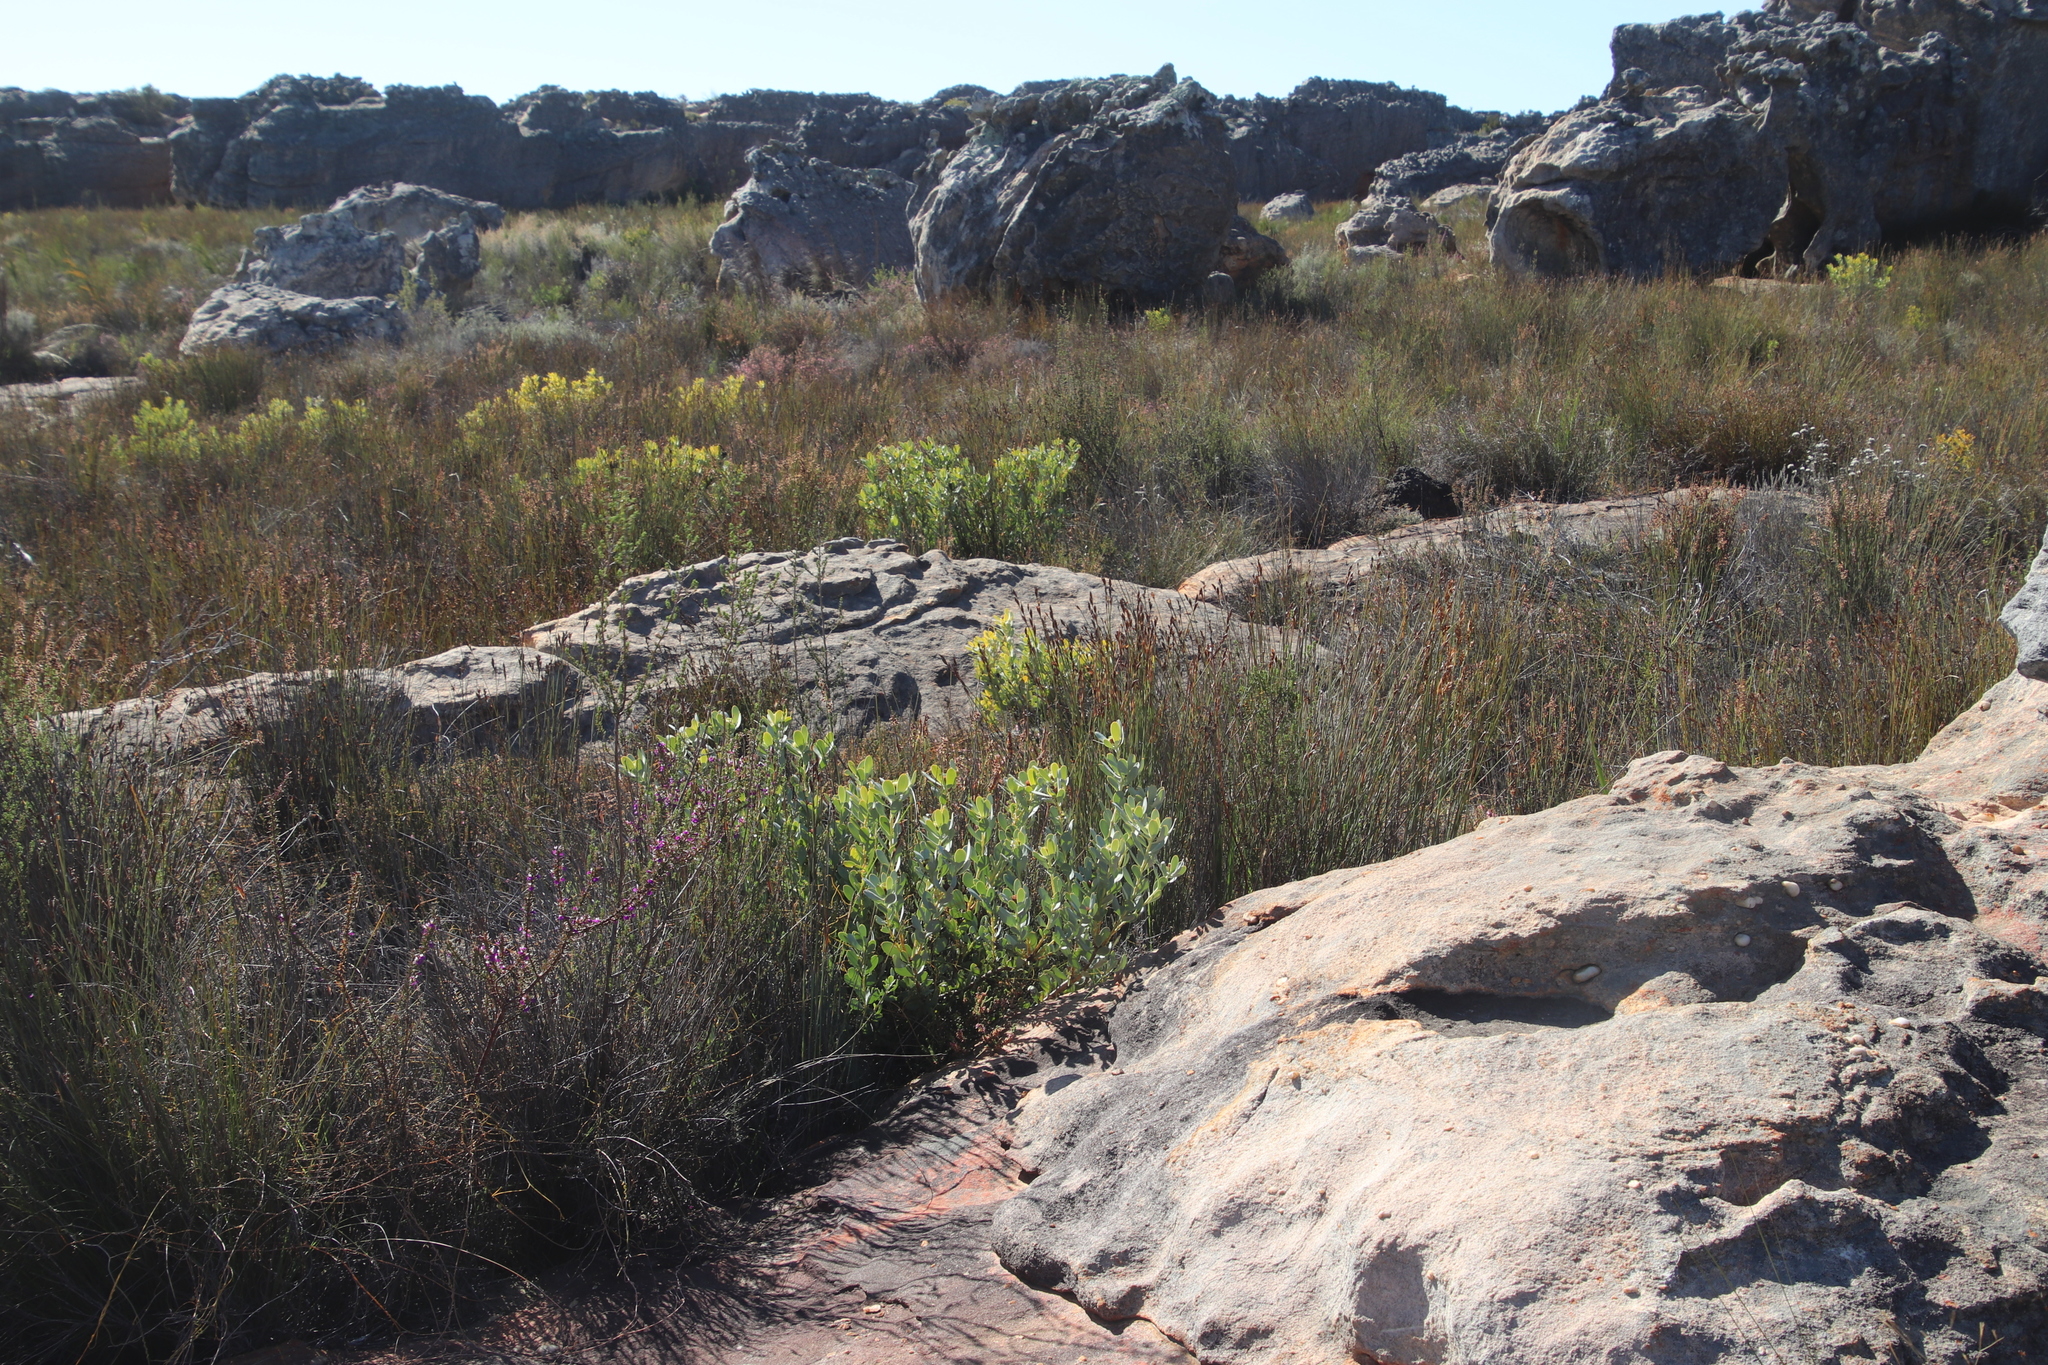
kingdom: Plantae
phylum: Tracheophyta
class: Magnoliopsida
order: Proteales
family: Proteaceae
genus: Leucadendron
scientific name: Leucadendron loranthifolium
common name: Green-flower sunbush
